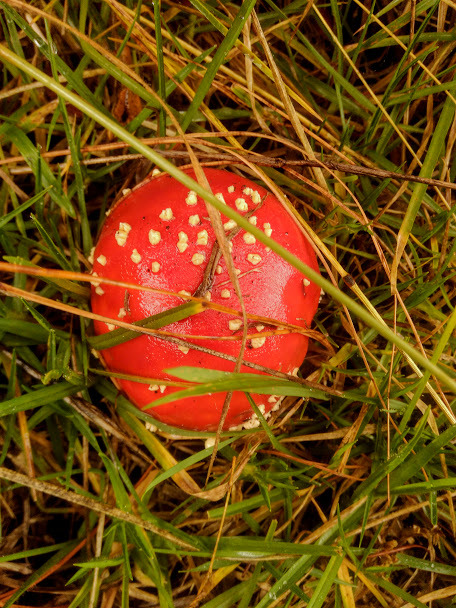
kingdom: Fungi
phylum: Basidiomycota
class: Agaricomycetes
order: Agaricales
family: Amanitaceae
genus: Amanita
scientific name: Amanita muscaria
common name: Fly agaric
